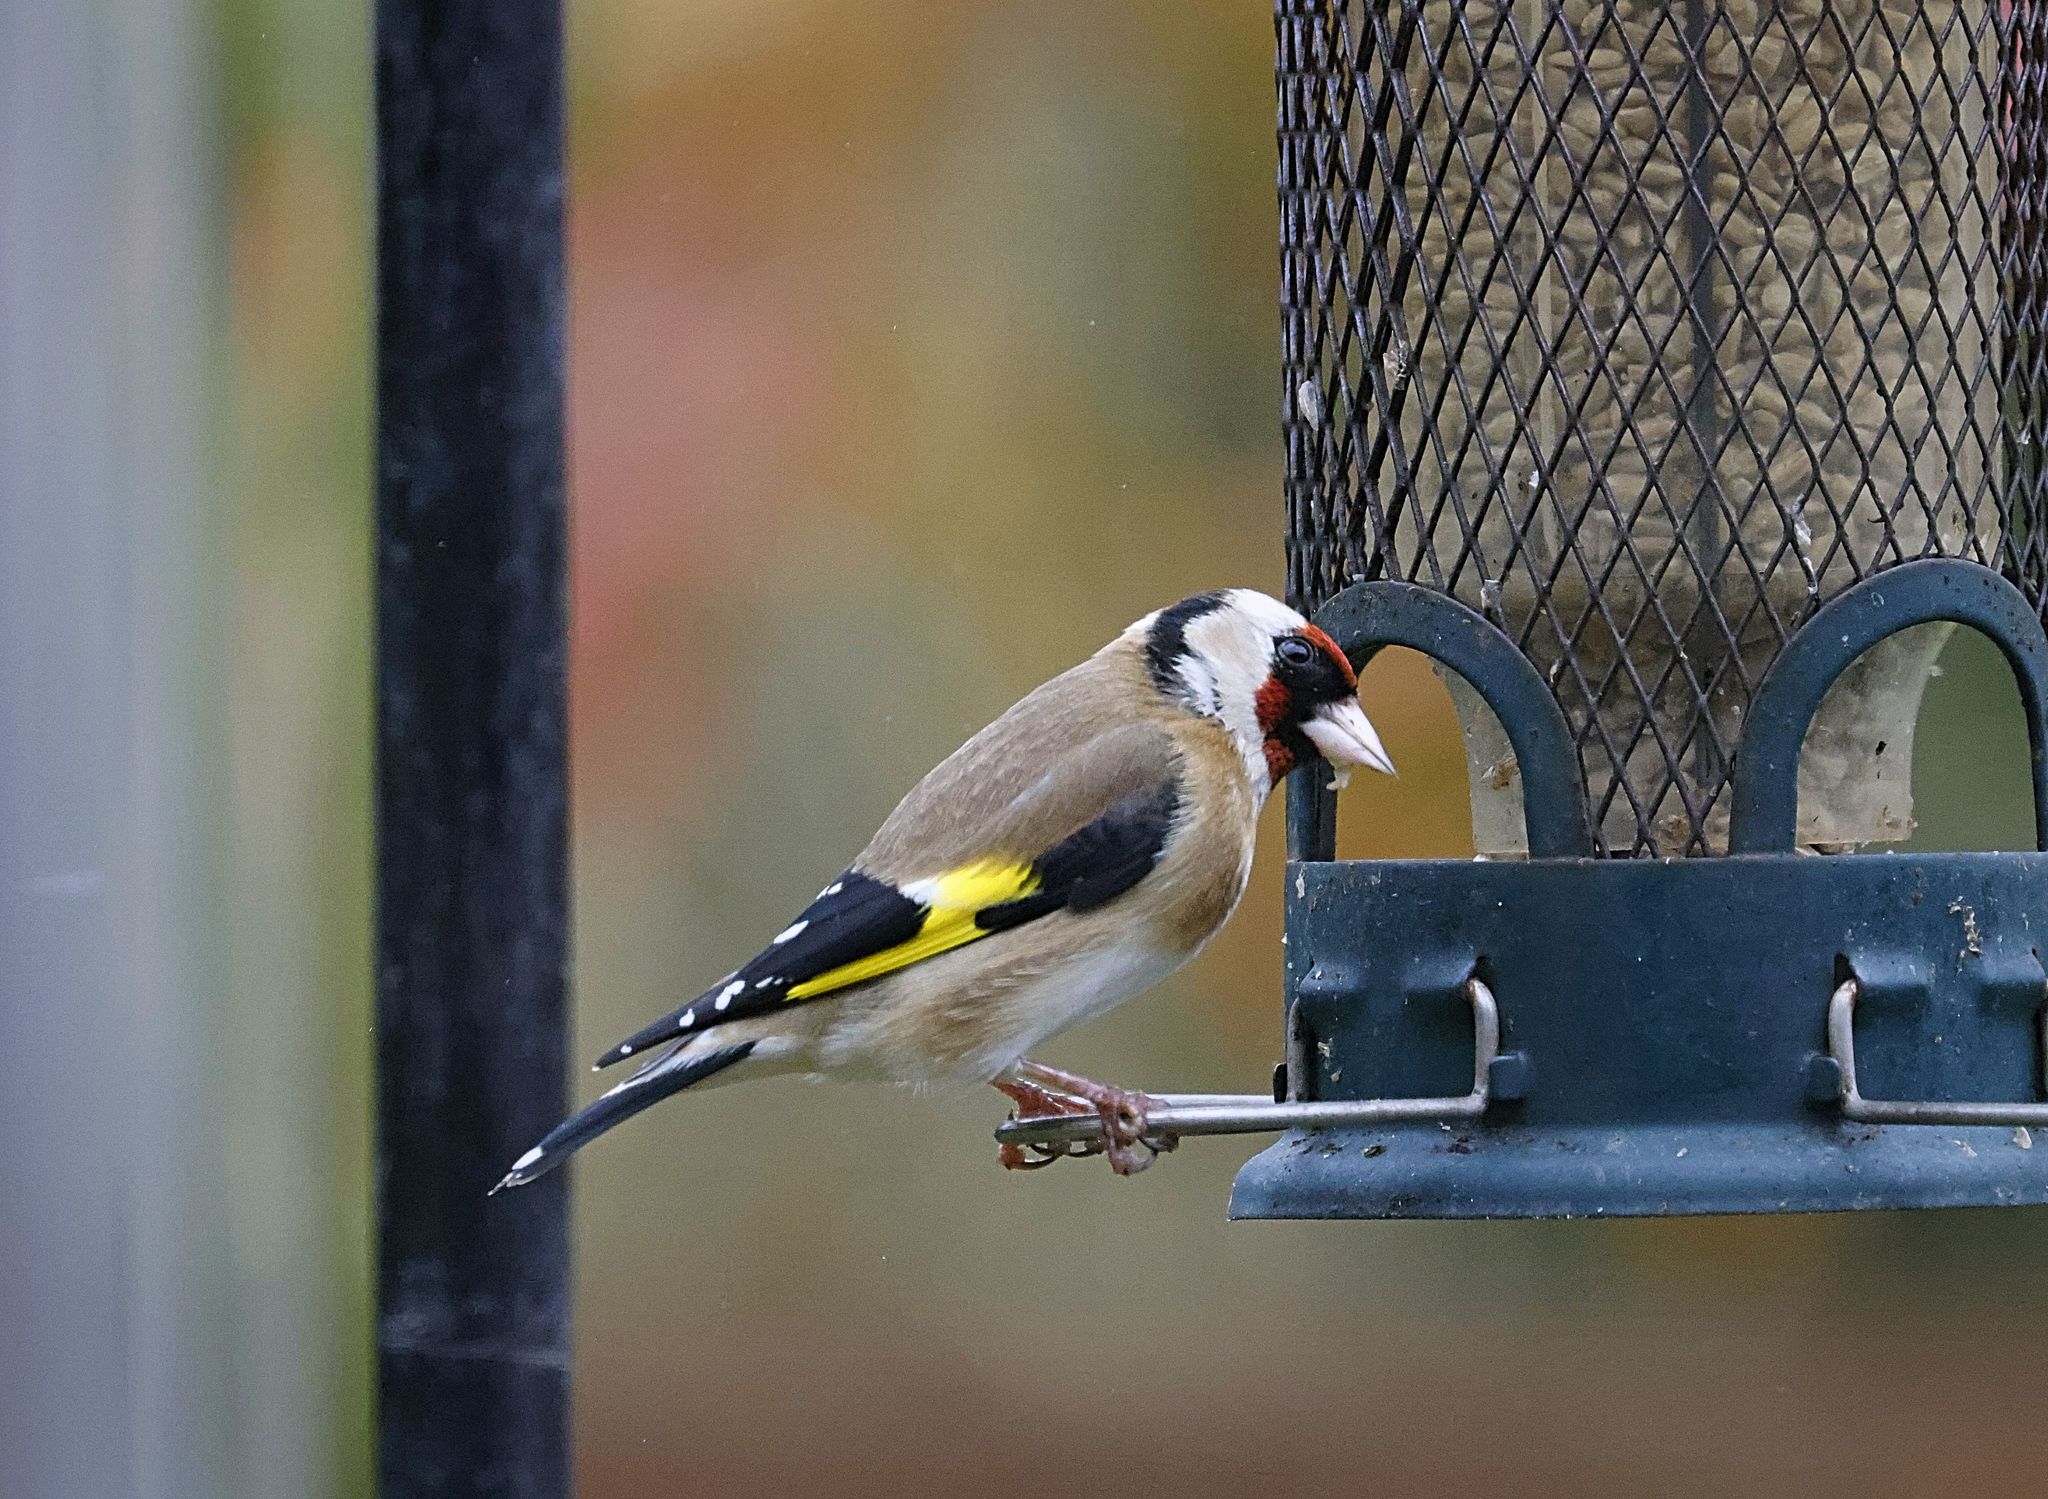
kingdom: Animalia
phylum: Chordata
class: Aves
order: Passeriformes
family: Fringillidae
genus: Carduelis
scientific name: Carduelis carduelis
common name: European goldfinch
